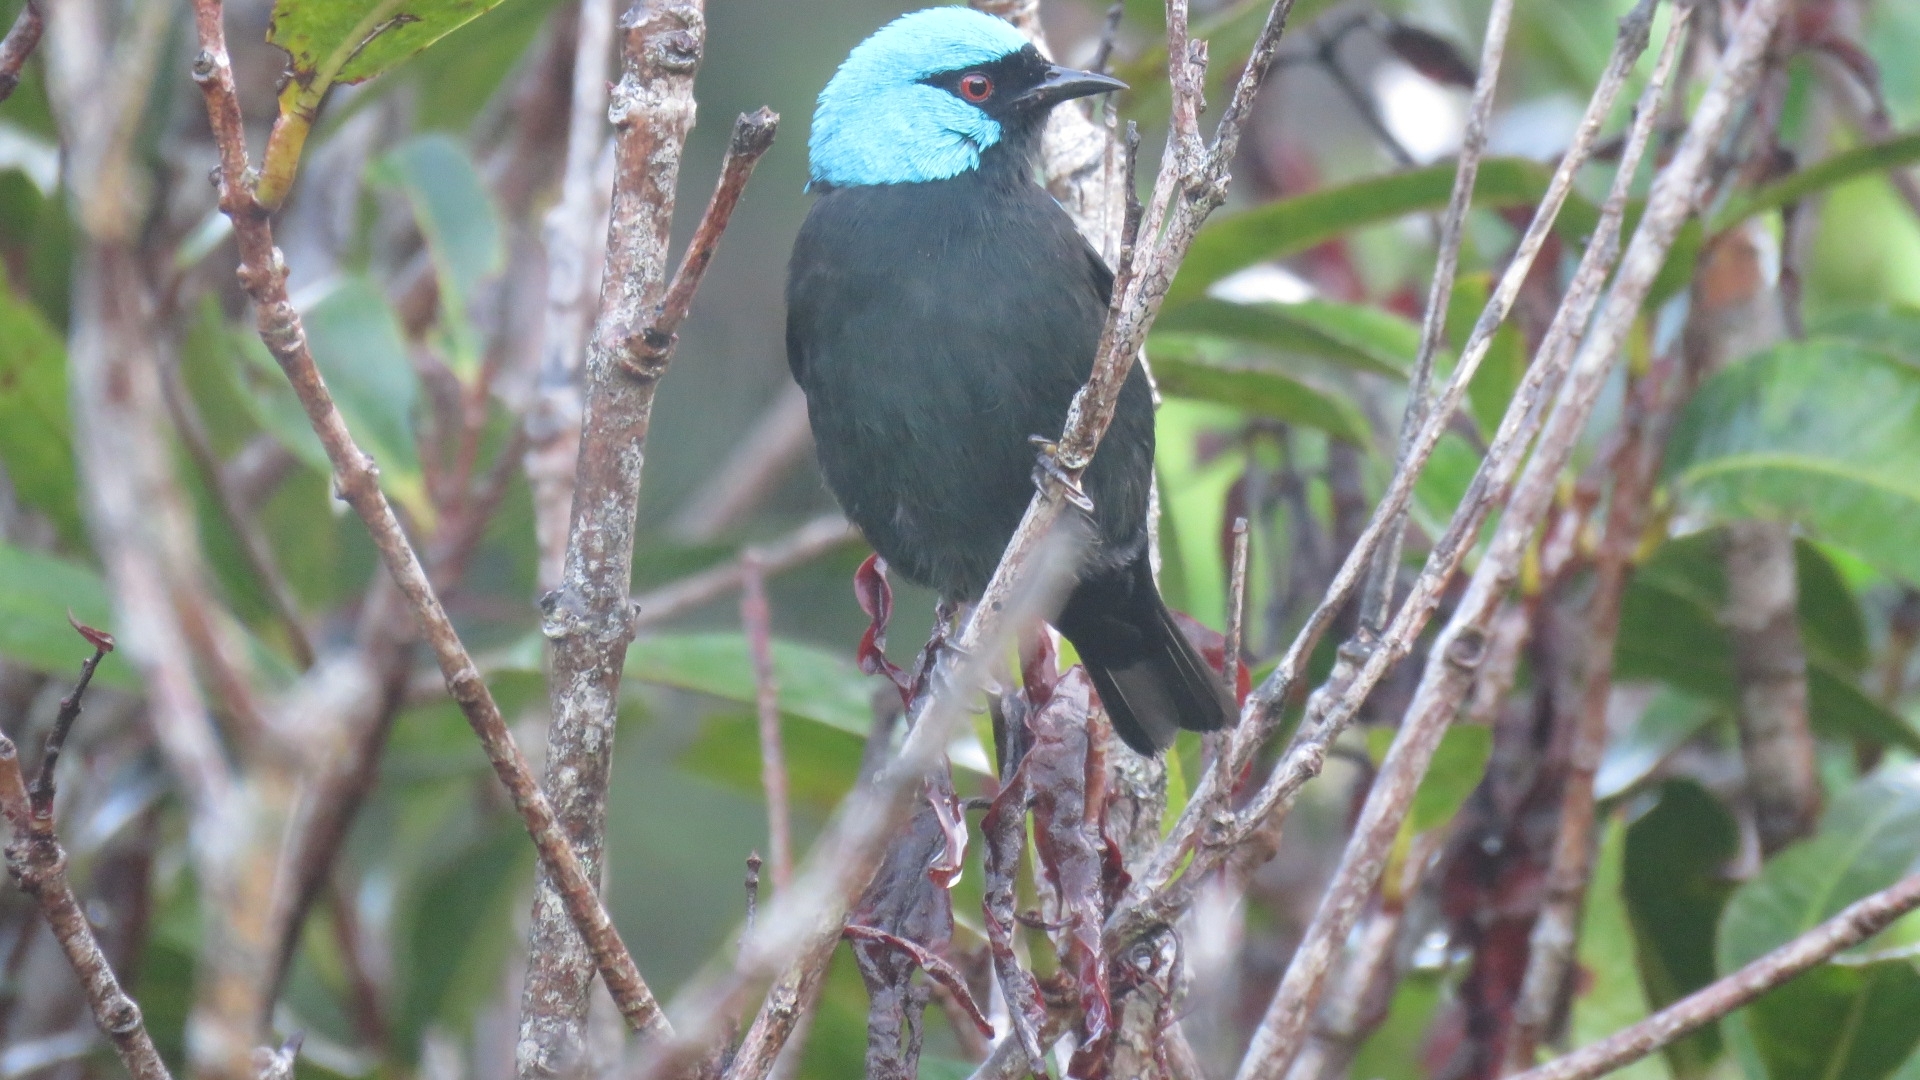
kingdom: Animalia
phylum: Chordata
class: Aves
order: Passeriformes
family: Thraupidae
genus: Dacnis
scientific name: Dacnis venusta
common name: Scarlet-thighed dacnis
